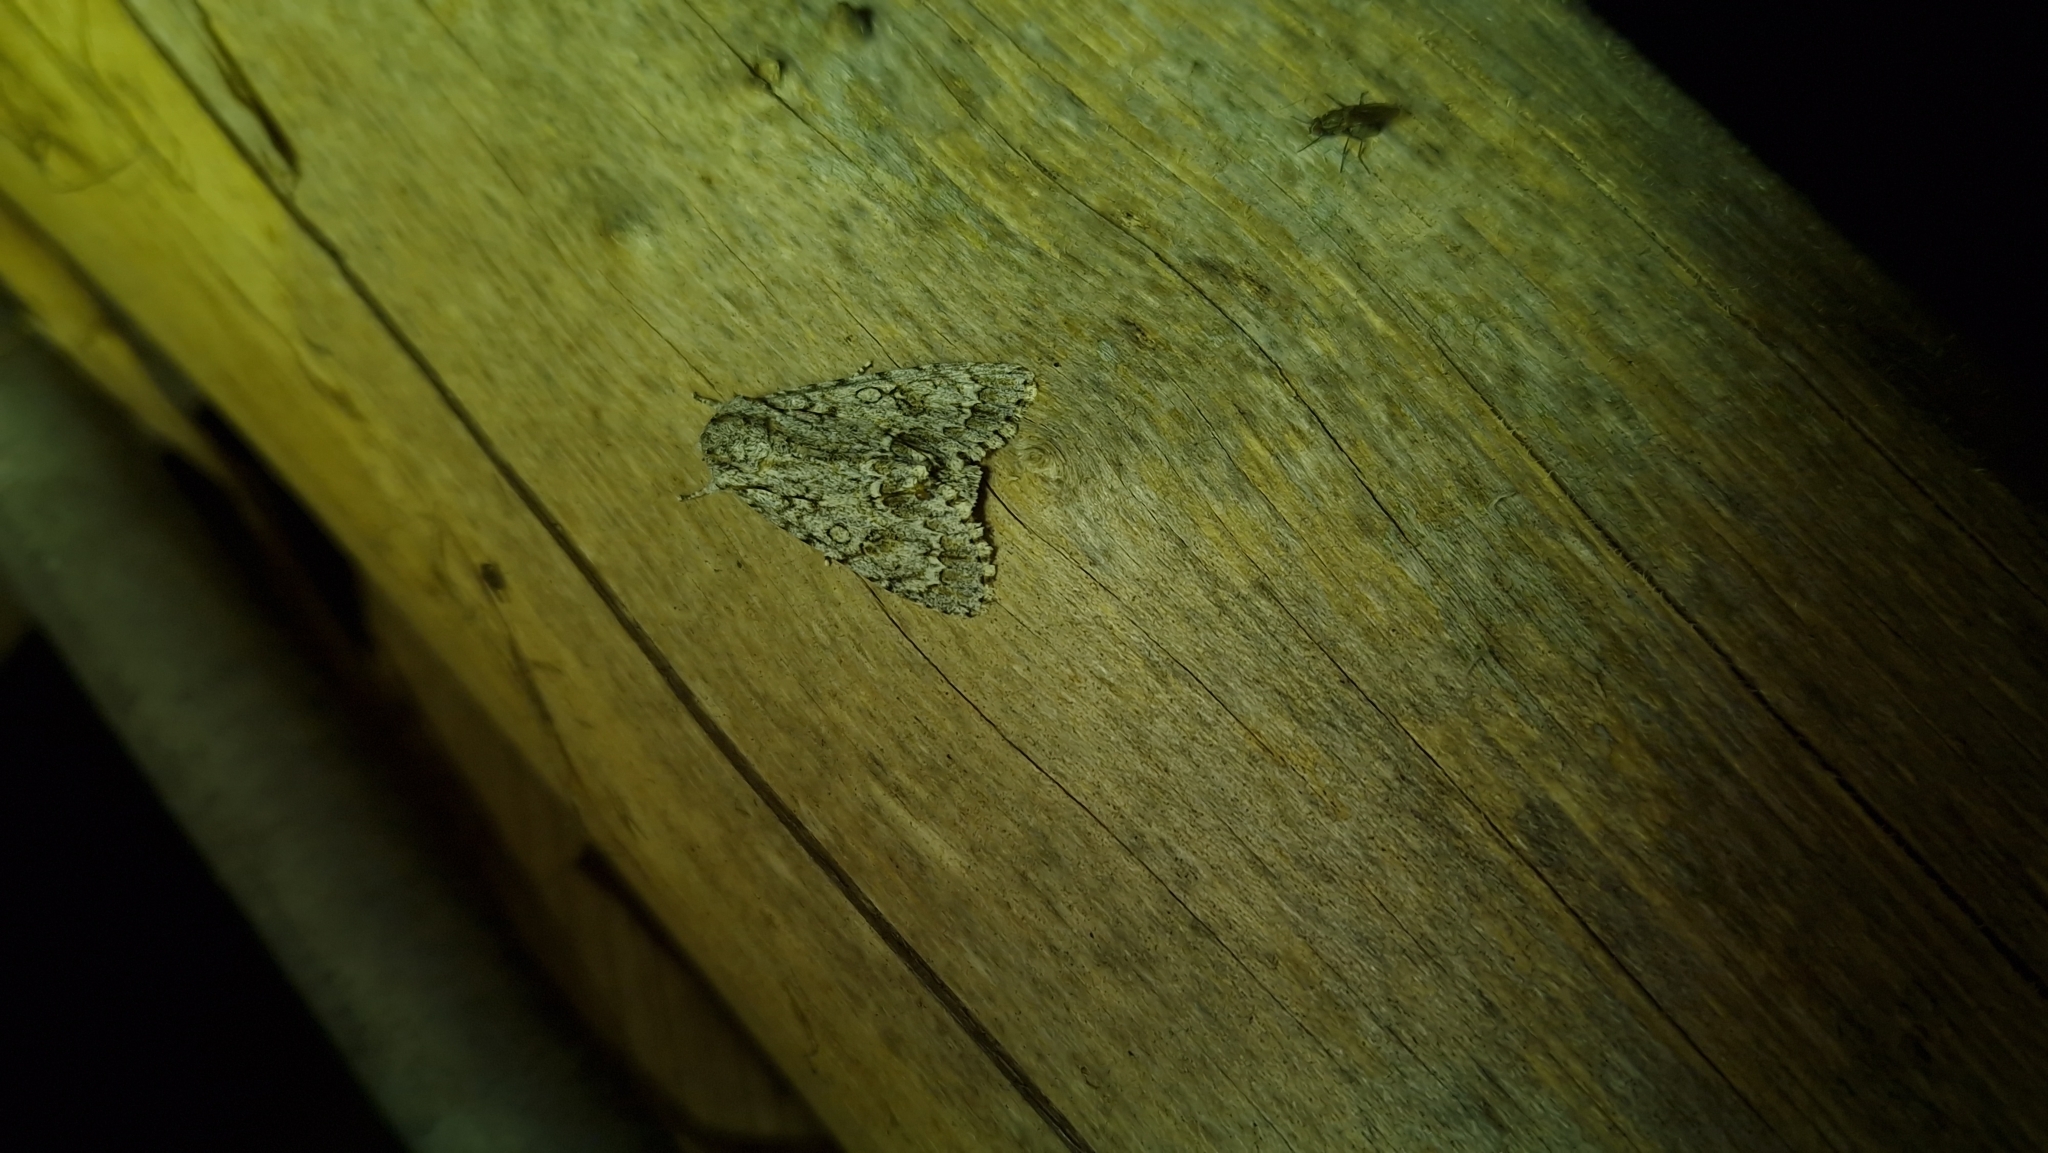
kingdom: Animalia
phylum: Arthropoda
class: Insecta
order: Lepidoptera
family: Noctuidae
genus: Acronicta
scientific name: Acronicta aceris
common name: Sycamore
